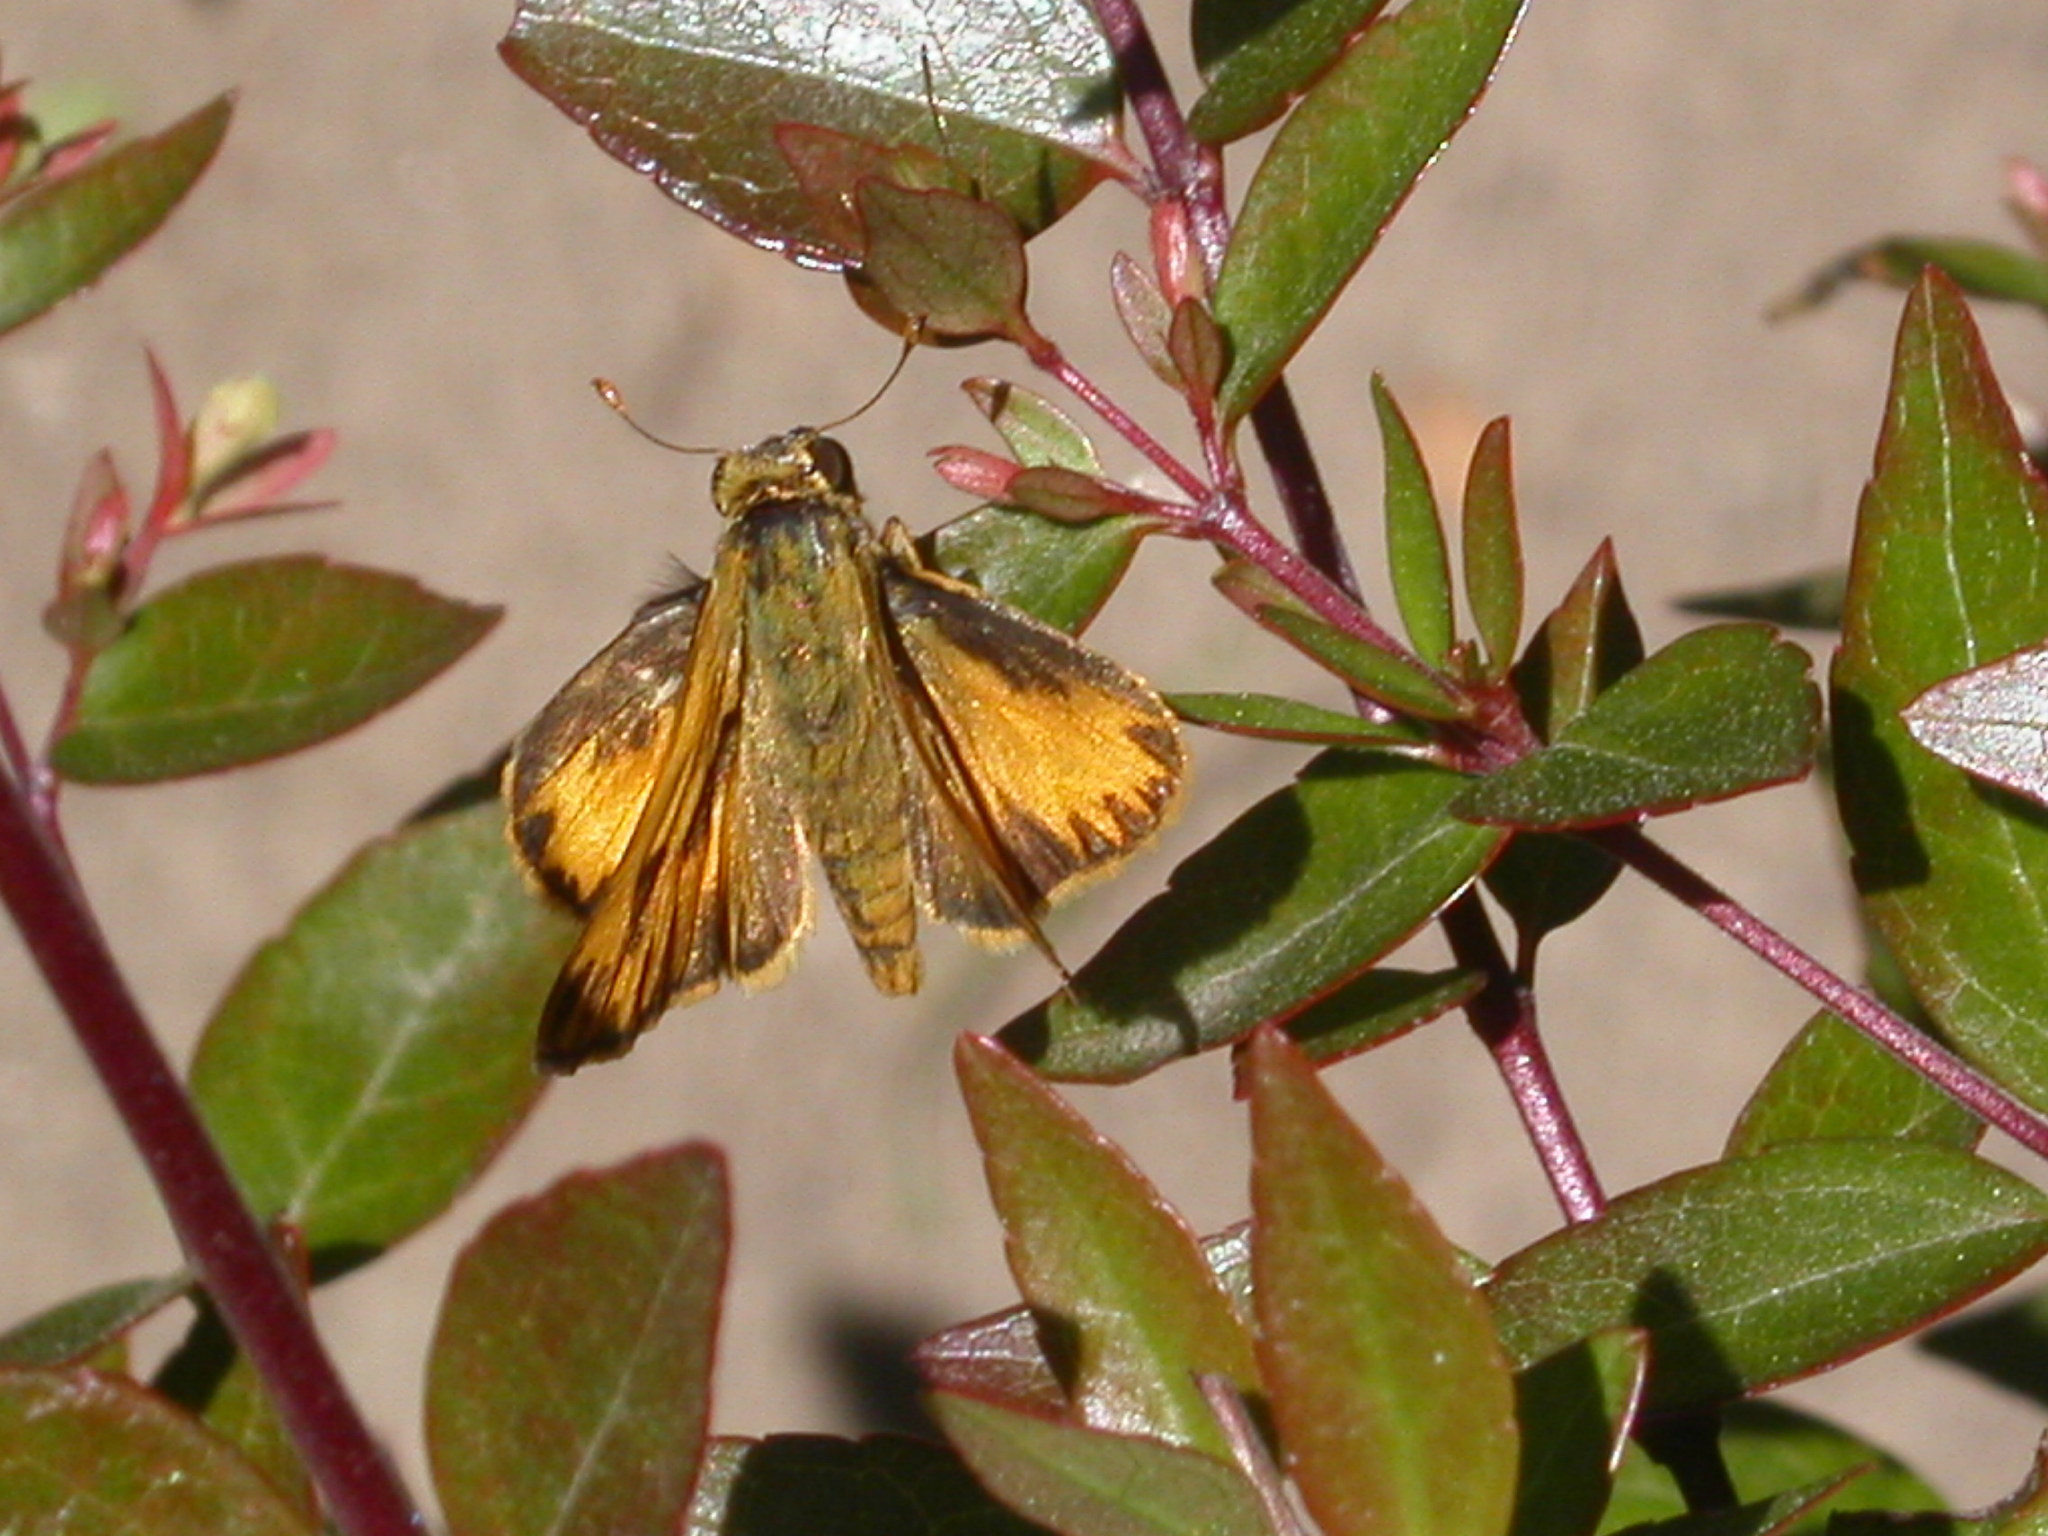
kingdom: Animalia
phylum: Arthropoda
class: Insecta
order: Lepidoptera
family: Hesperiidae
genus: Hylephila
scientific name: Hylephila phyleus
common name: Fiery skipper
